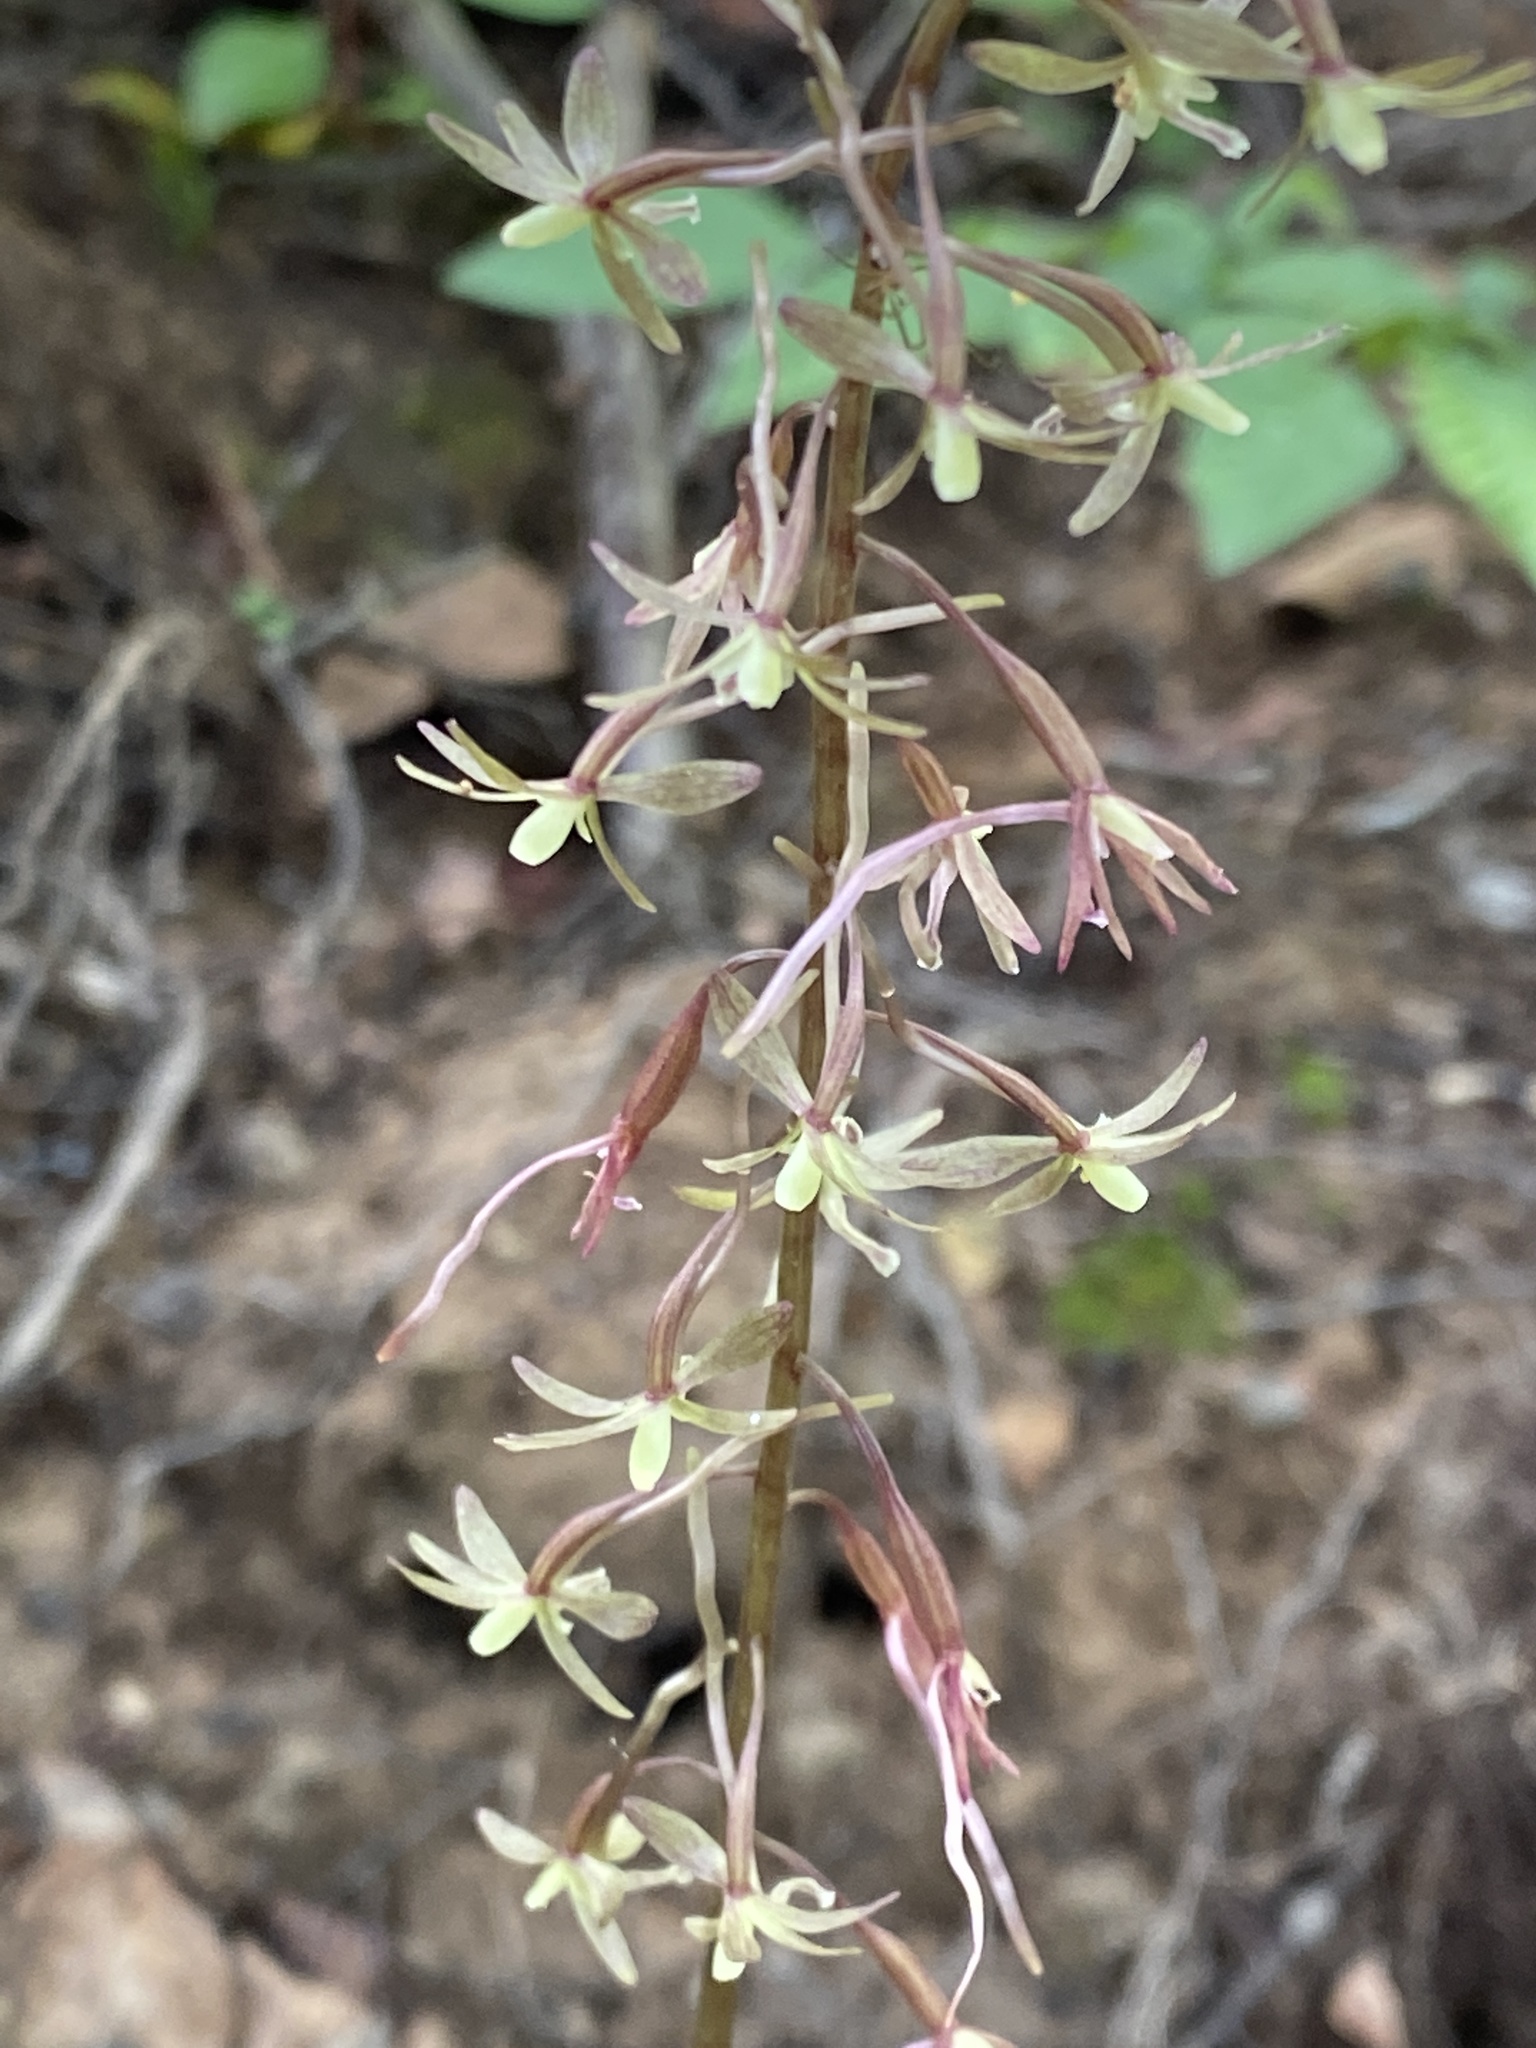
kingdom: Plantae
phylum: Tracheophyta
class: Liliopsida
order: Asparagales
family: Orchidaceae
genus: Tipularia
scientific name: Tipularia discolor
